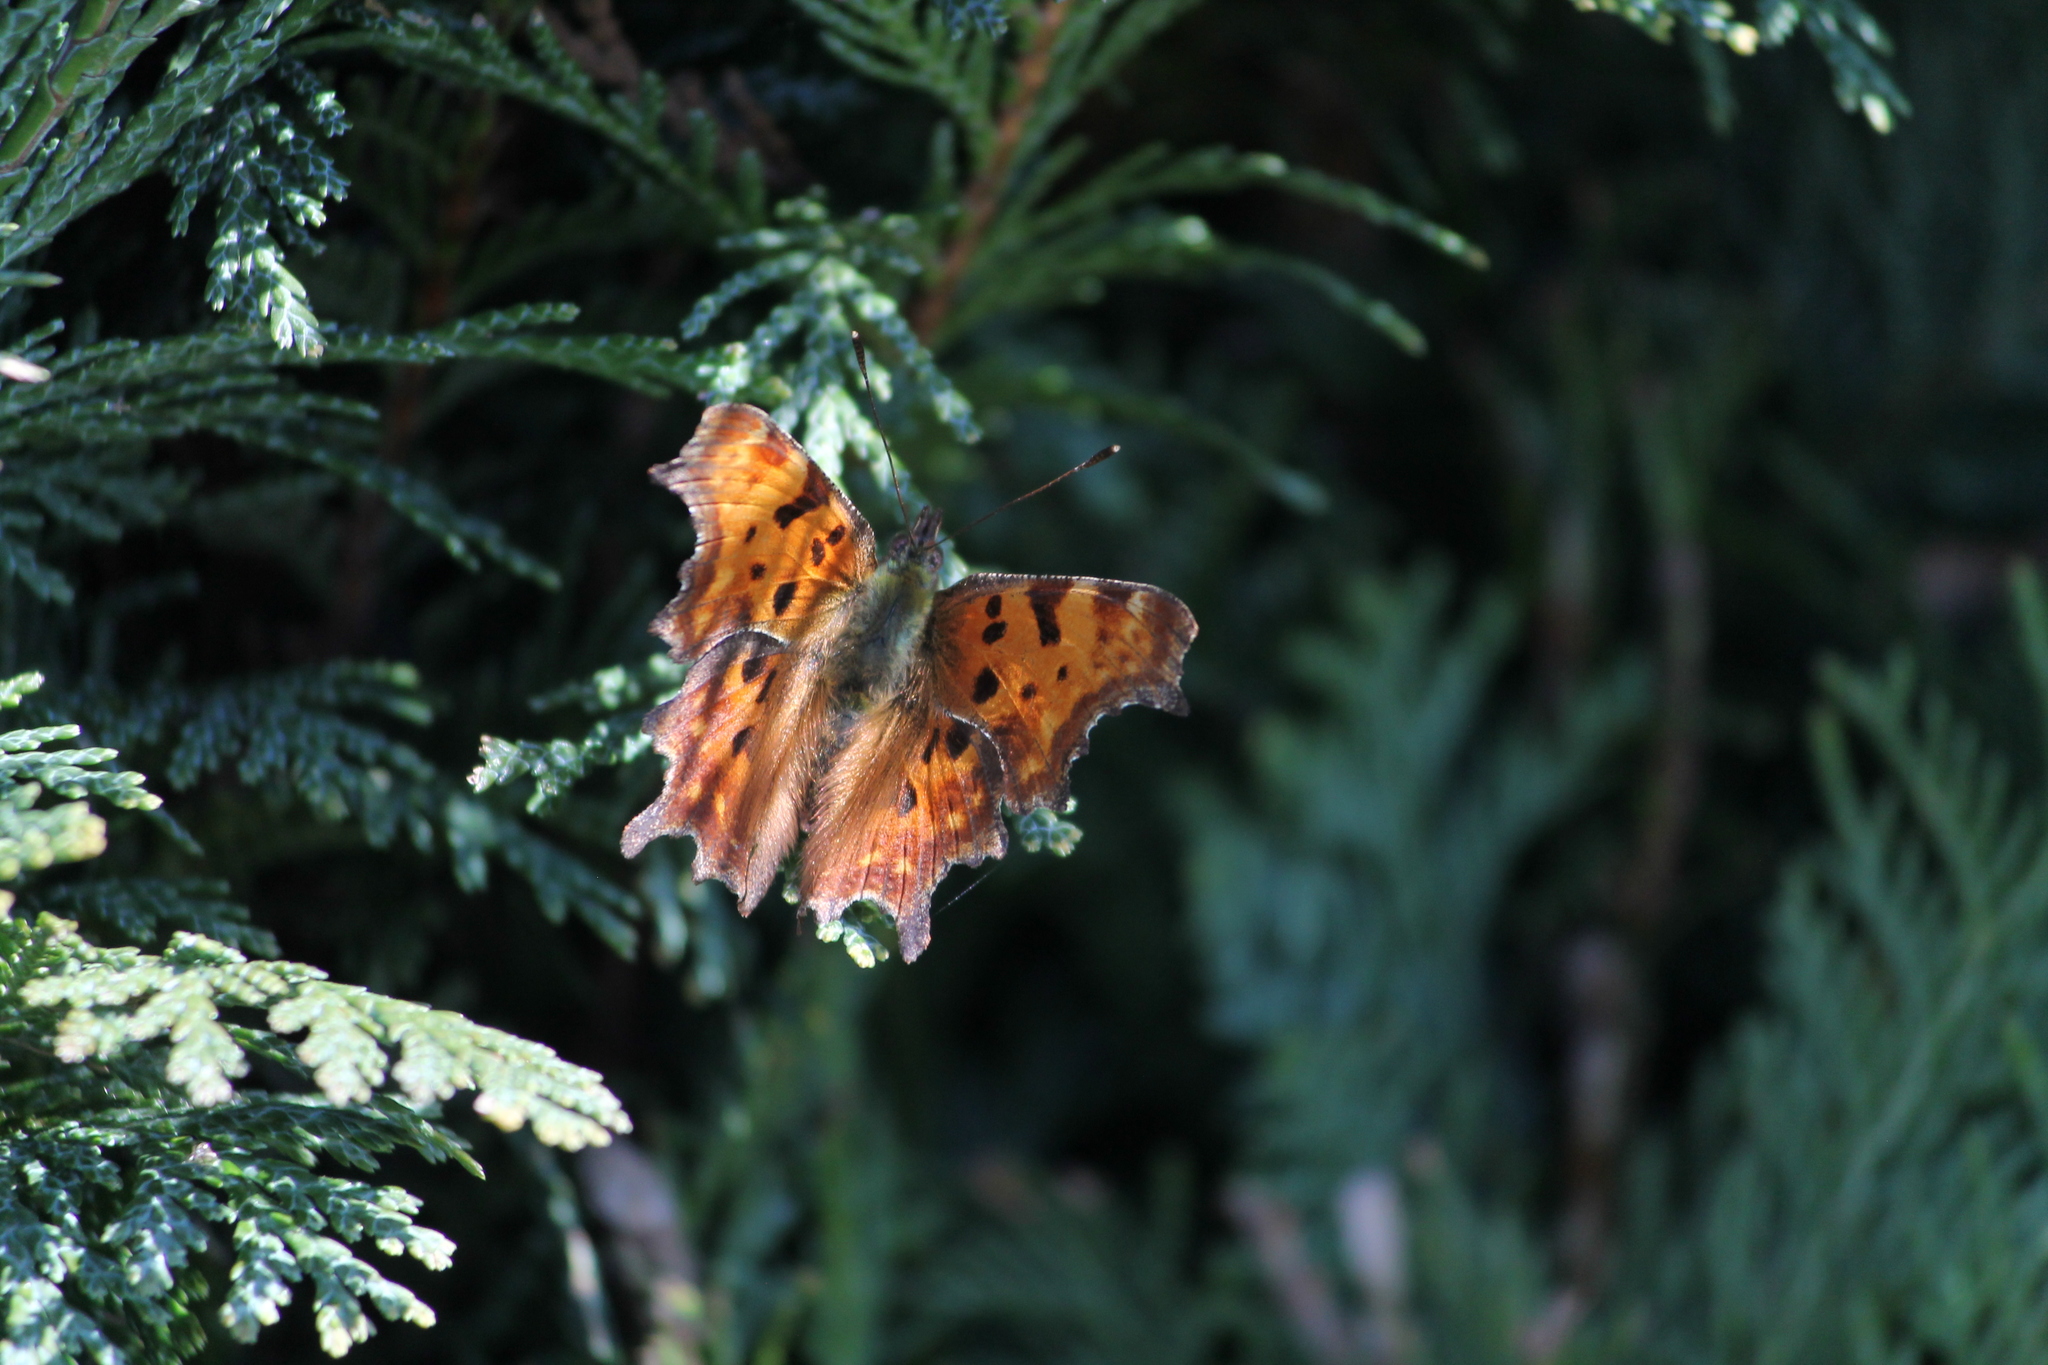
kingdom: Animalia
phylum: Arthropoda
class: Insecta
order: Lepidoptera
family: Nymphalidae
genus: Polygonia
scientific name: Polygonia c-album
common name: Comma
